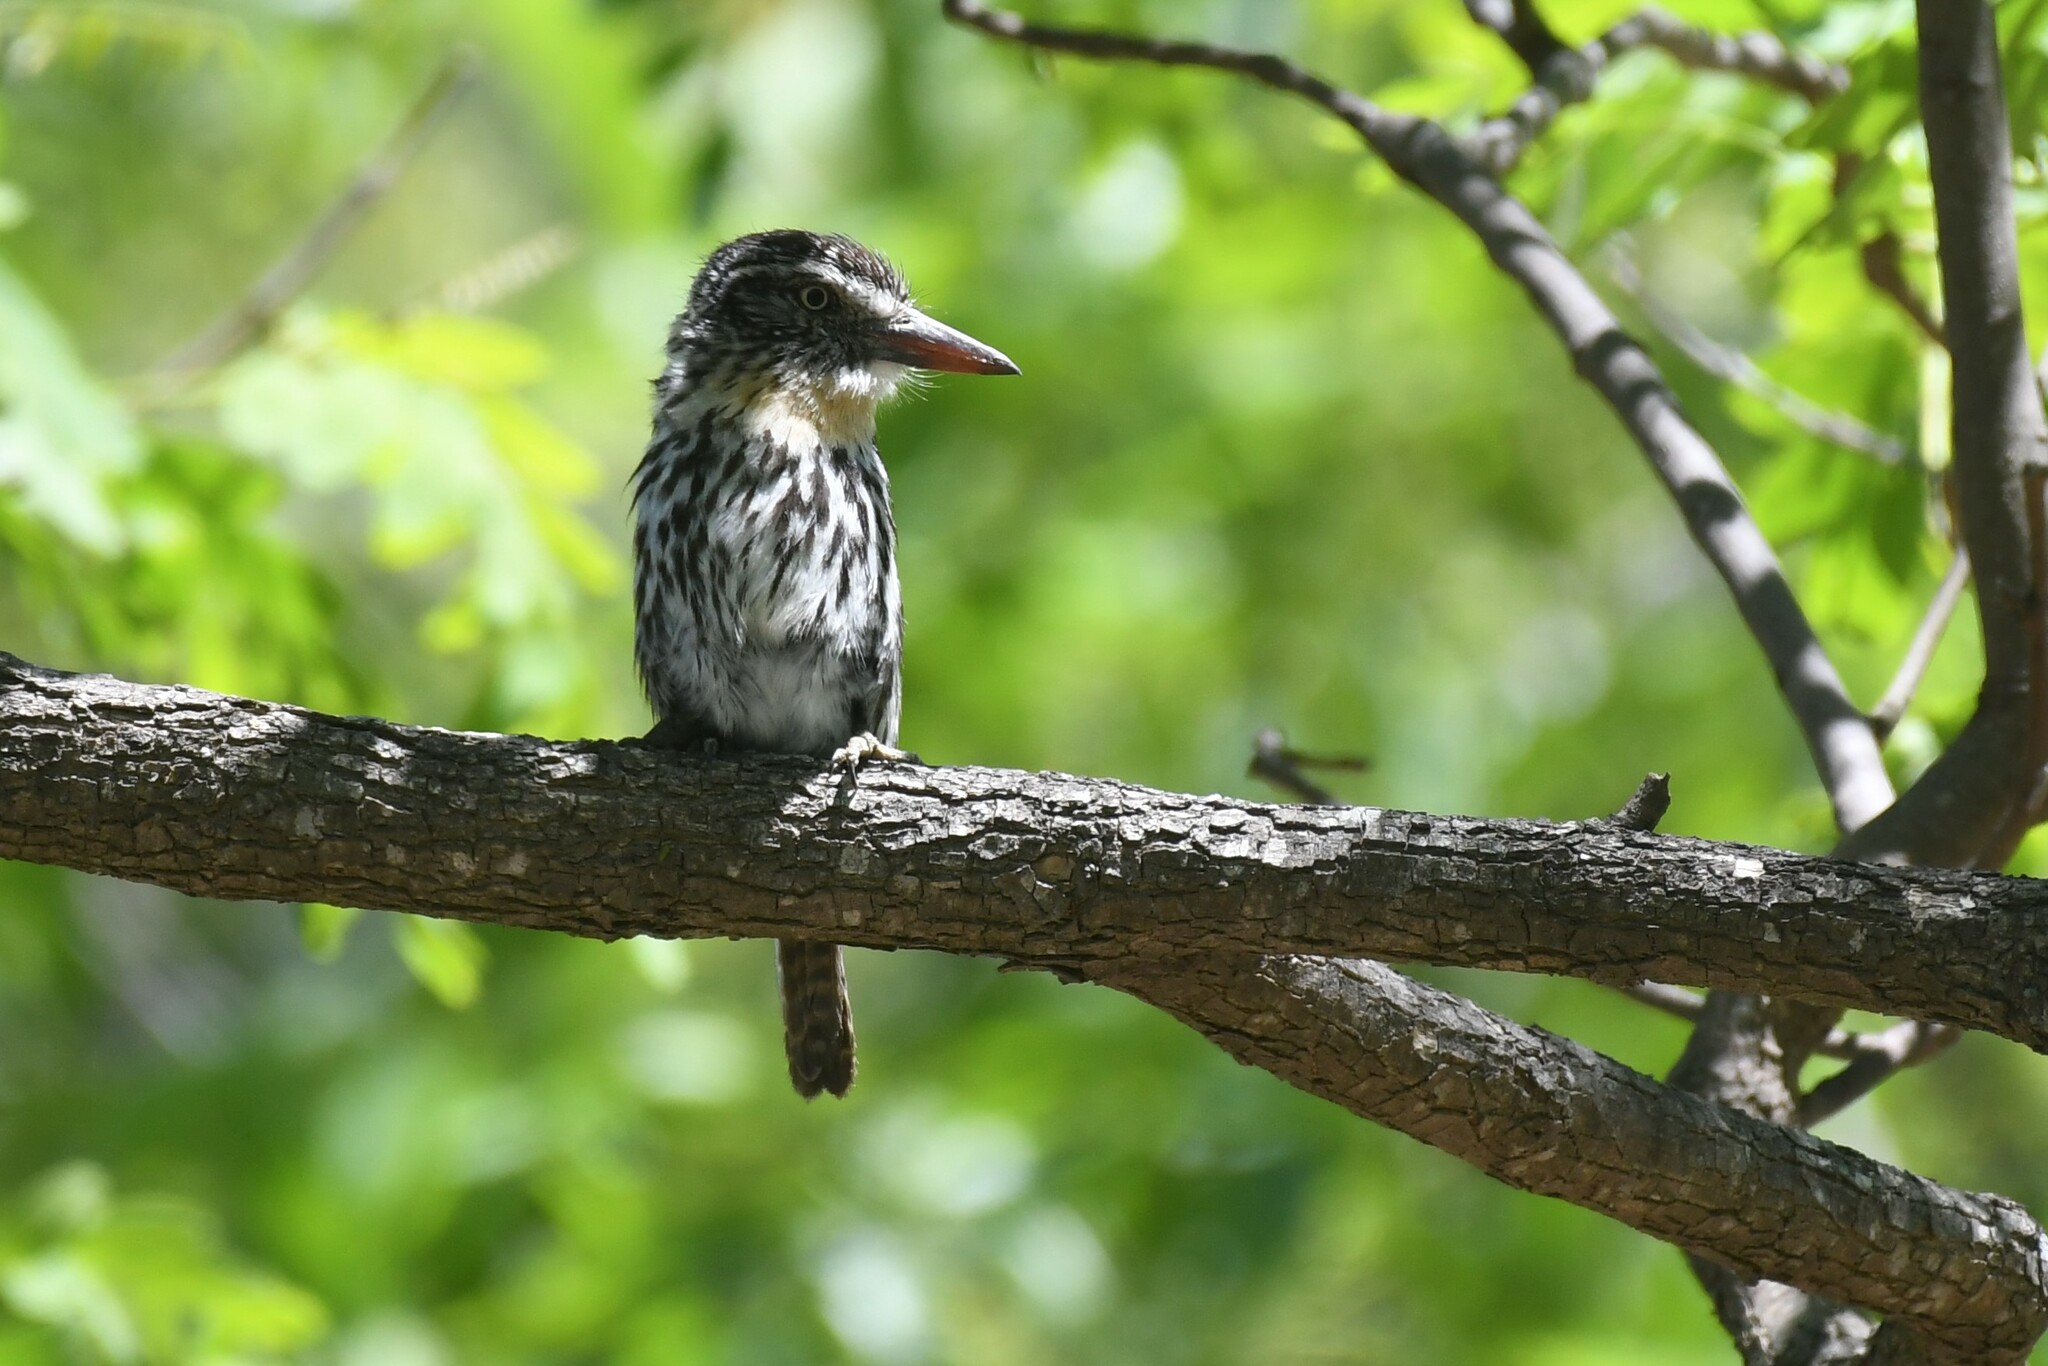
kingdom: Animalia
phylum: Chordata
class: Aves
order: Piciformes
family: Bucconidae
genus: Nystalus
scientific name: Nystalus striatipectus
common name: Chaco puffbird
